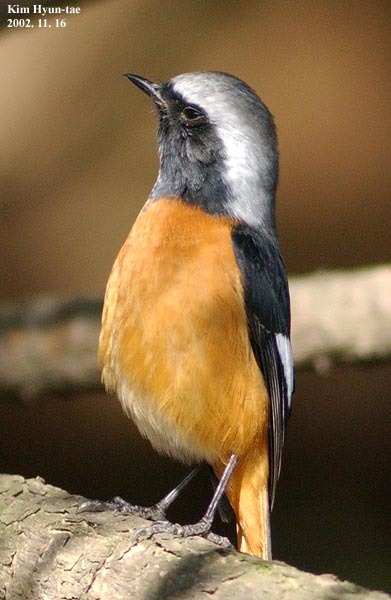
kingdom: Animalia
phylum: Chordata
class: Aves
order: Passeriformes
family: Muscicapidae
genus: Phoenicurus
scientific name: Phoenicurus auroreus
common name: Daurian redstart
